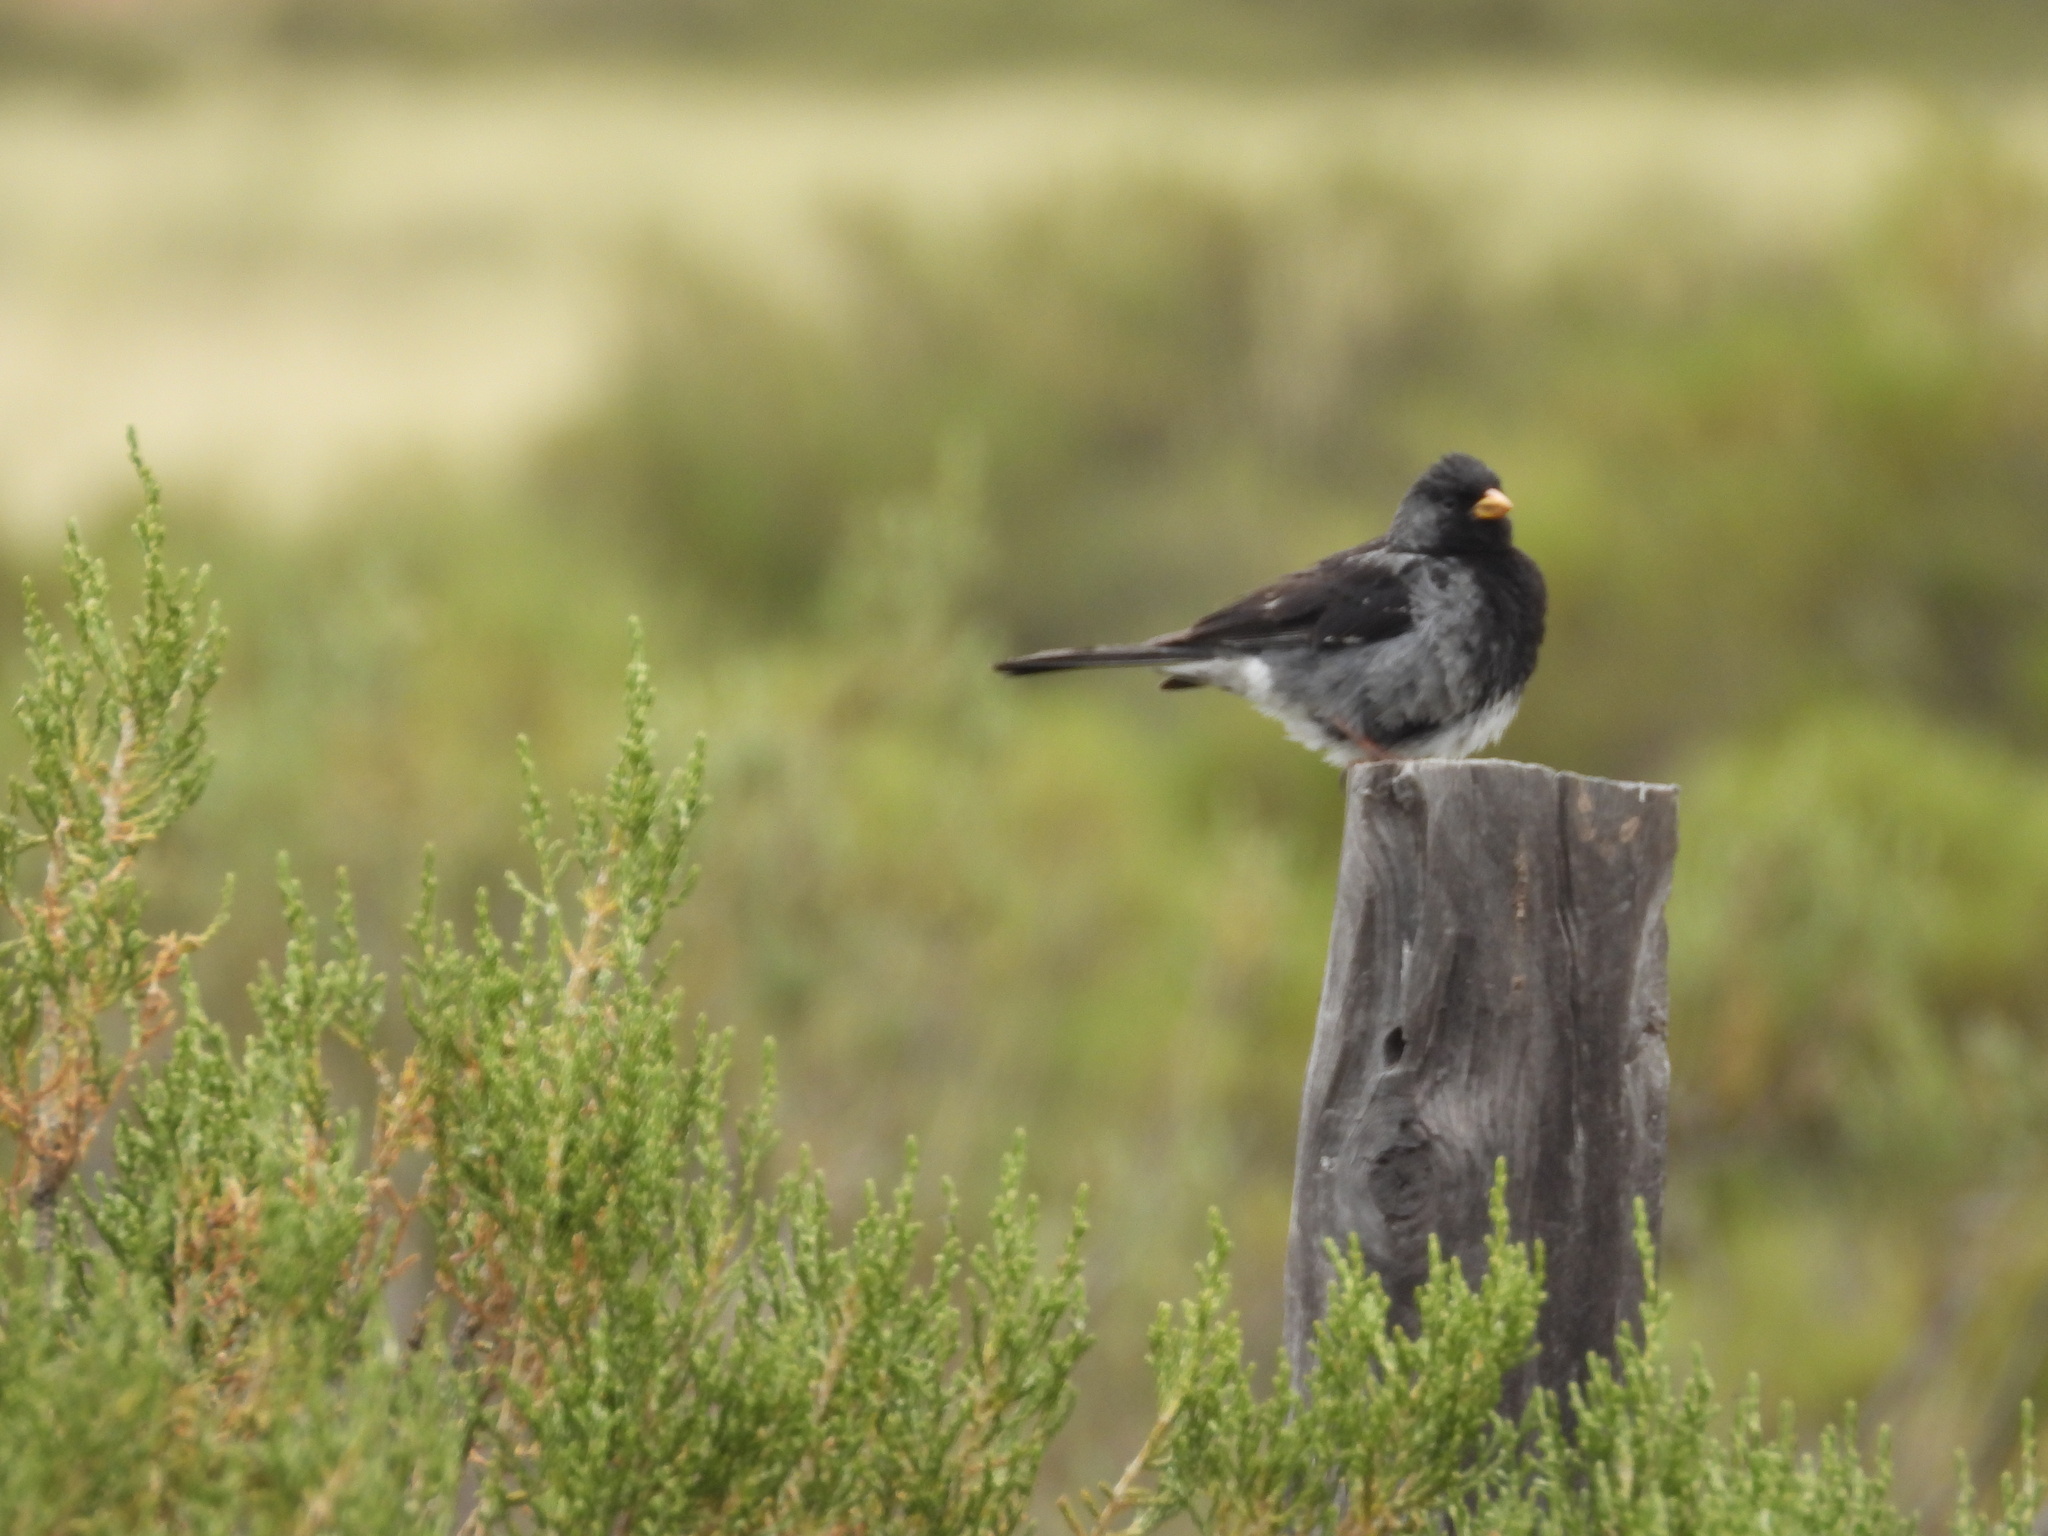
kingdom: Animalia
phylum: Chordata
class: Aves
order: Passeriformes
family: Thraupidae
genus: Rhopospina
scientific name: Rhopospina fruticeti
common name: Mourning sierra finch
